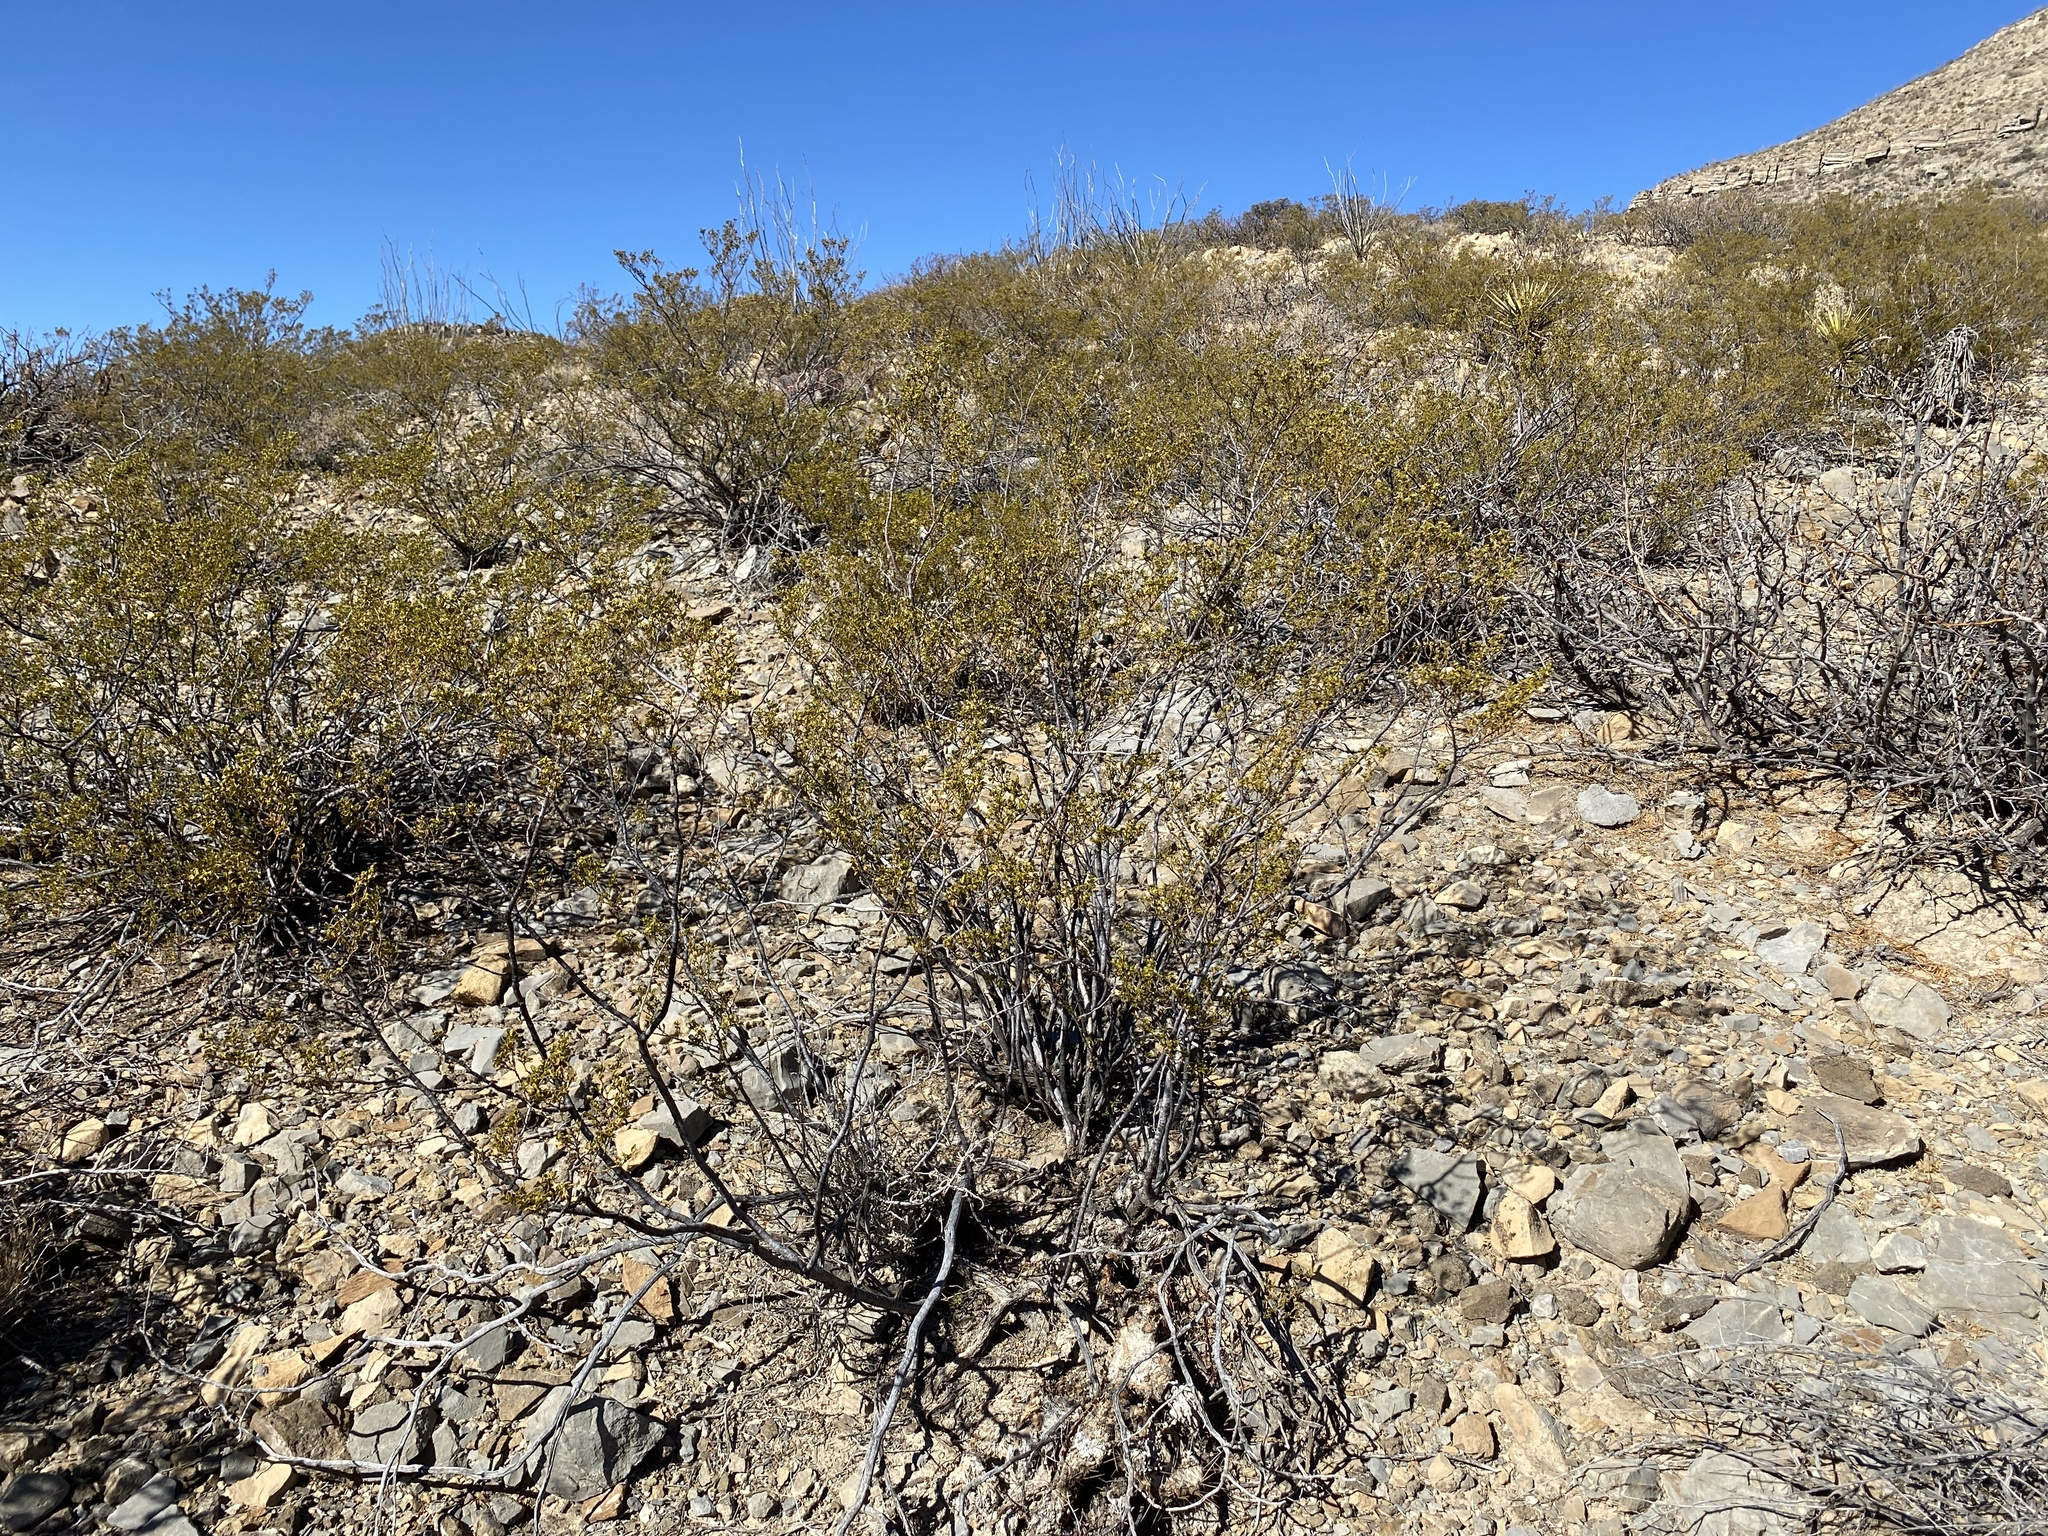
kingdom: Plantae
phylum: Tracheophyta
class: Magnoliopsida
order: Zygophyllales
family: Zygophyllaceae
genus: Larrea
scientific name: Larrea tridentata
